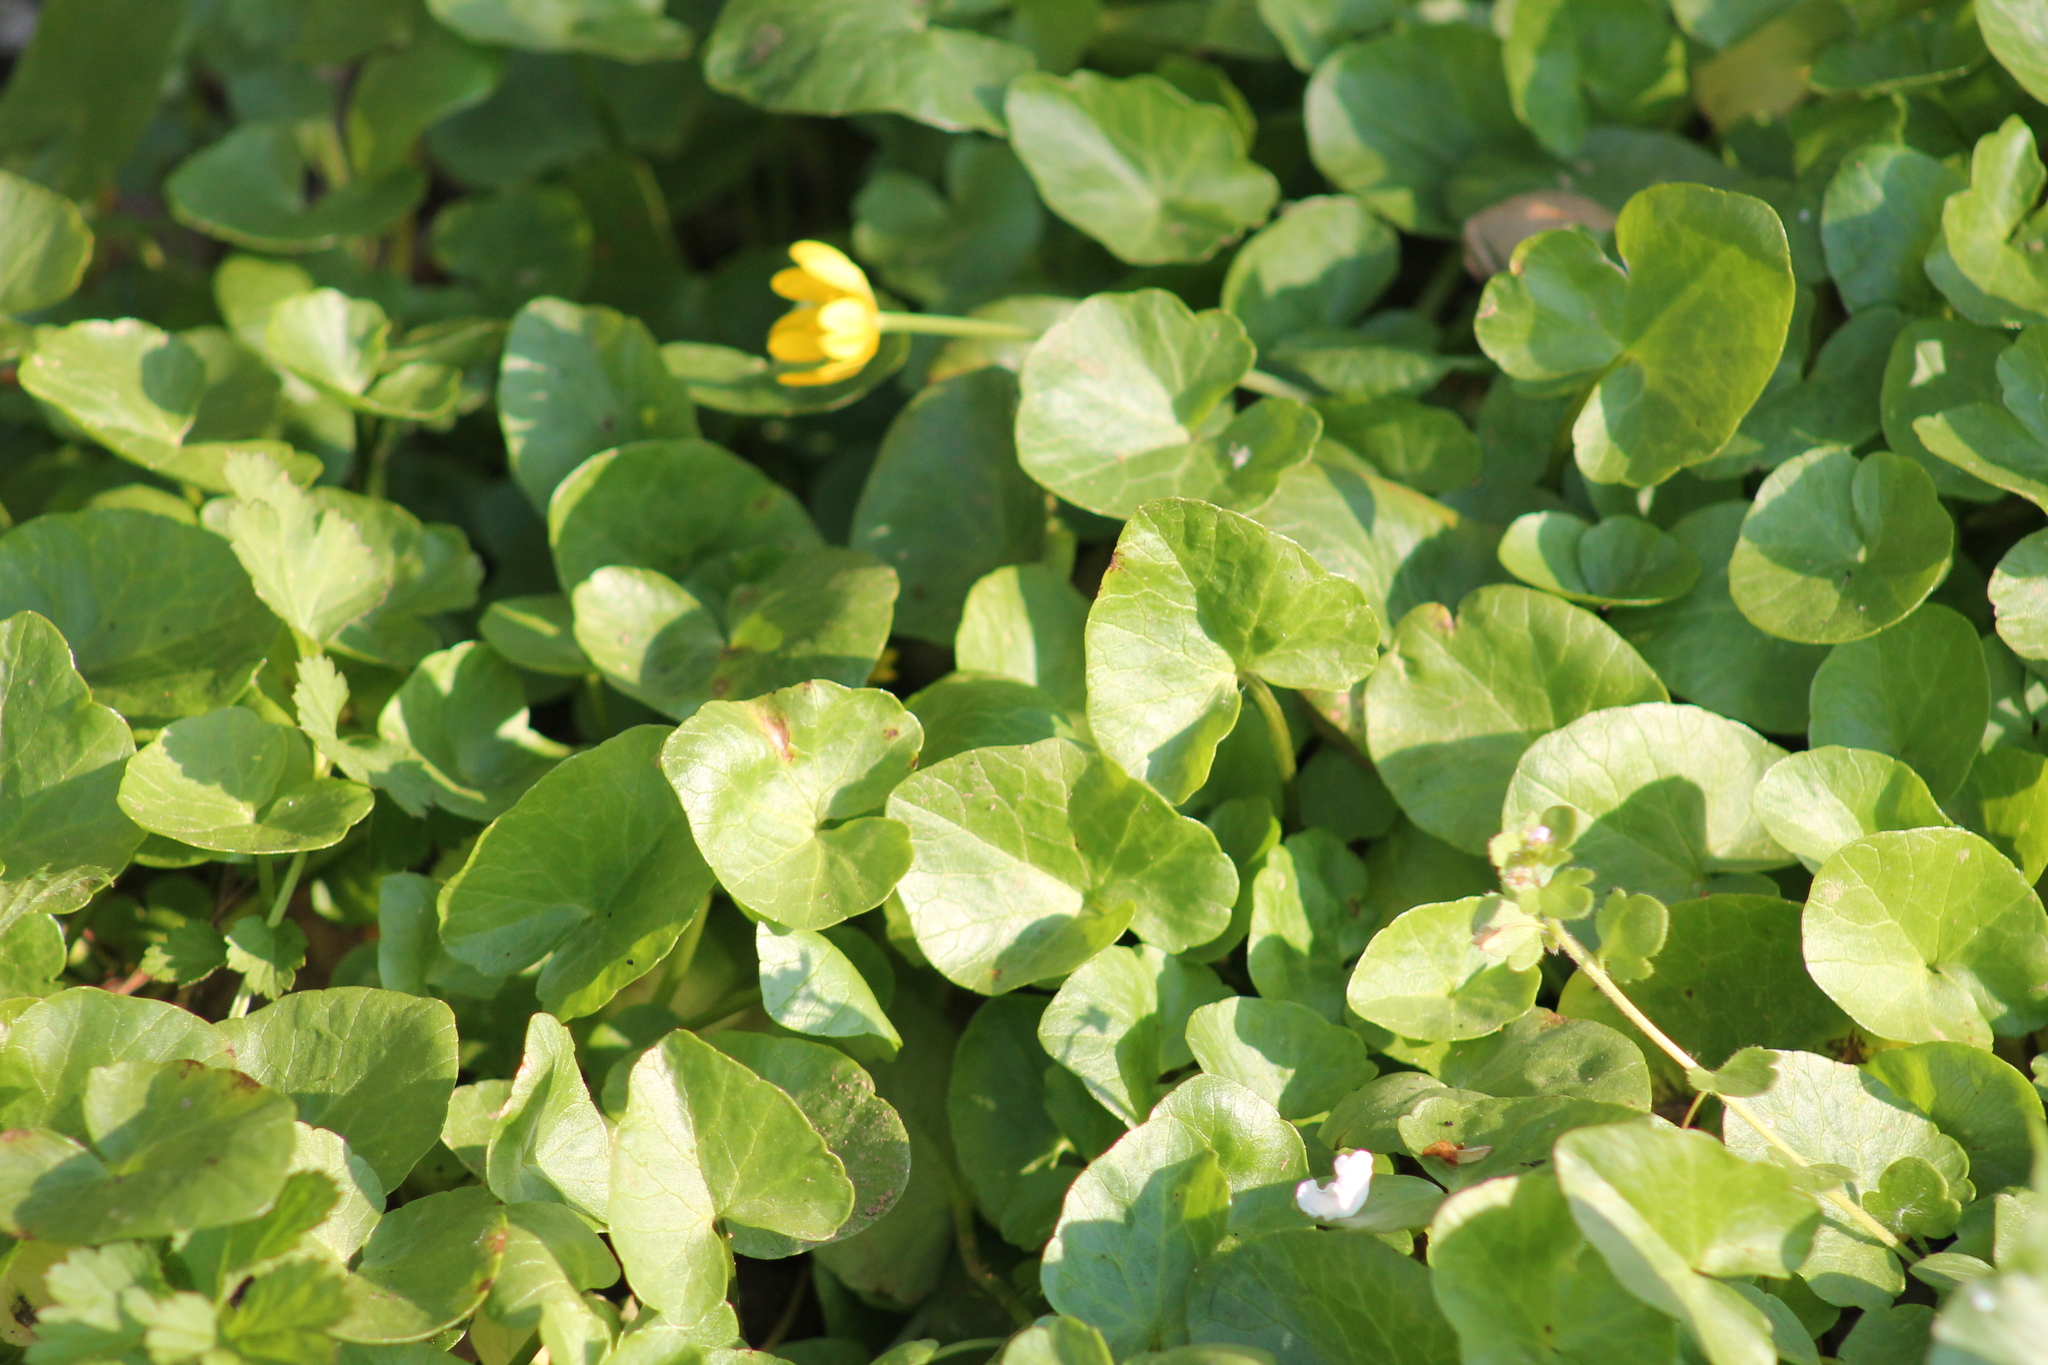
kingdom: Plantae
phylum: Tracheophyta
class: Magnoliopsida
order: Ranunculales
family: Ranunculaceae
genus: Ficaria
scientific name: Ficaria verna
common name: Lesser celandine
